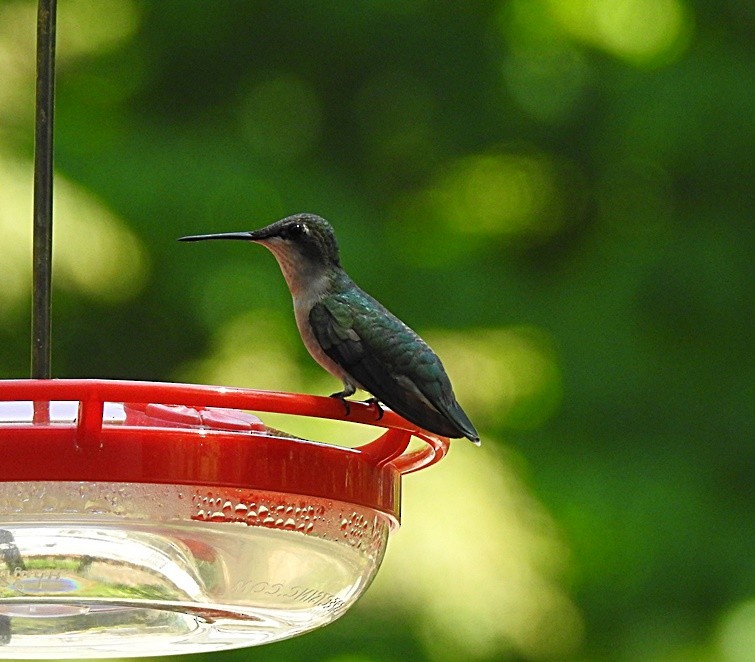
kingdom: Animalia
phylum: Chordata
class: Aves
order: Apodiformes
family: Trochilidae
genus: Archilochus
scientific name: Archilochus colubris
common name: Ruby-throated hummingbird
